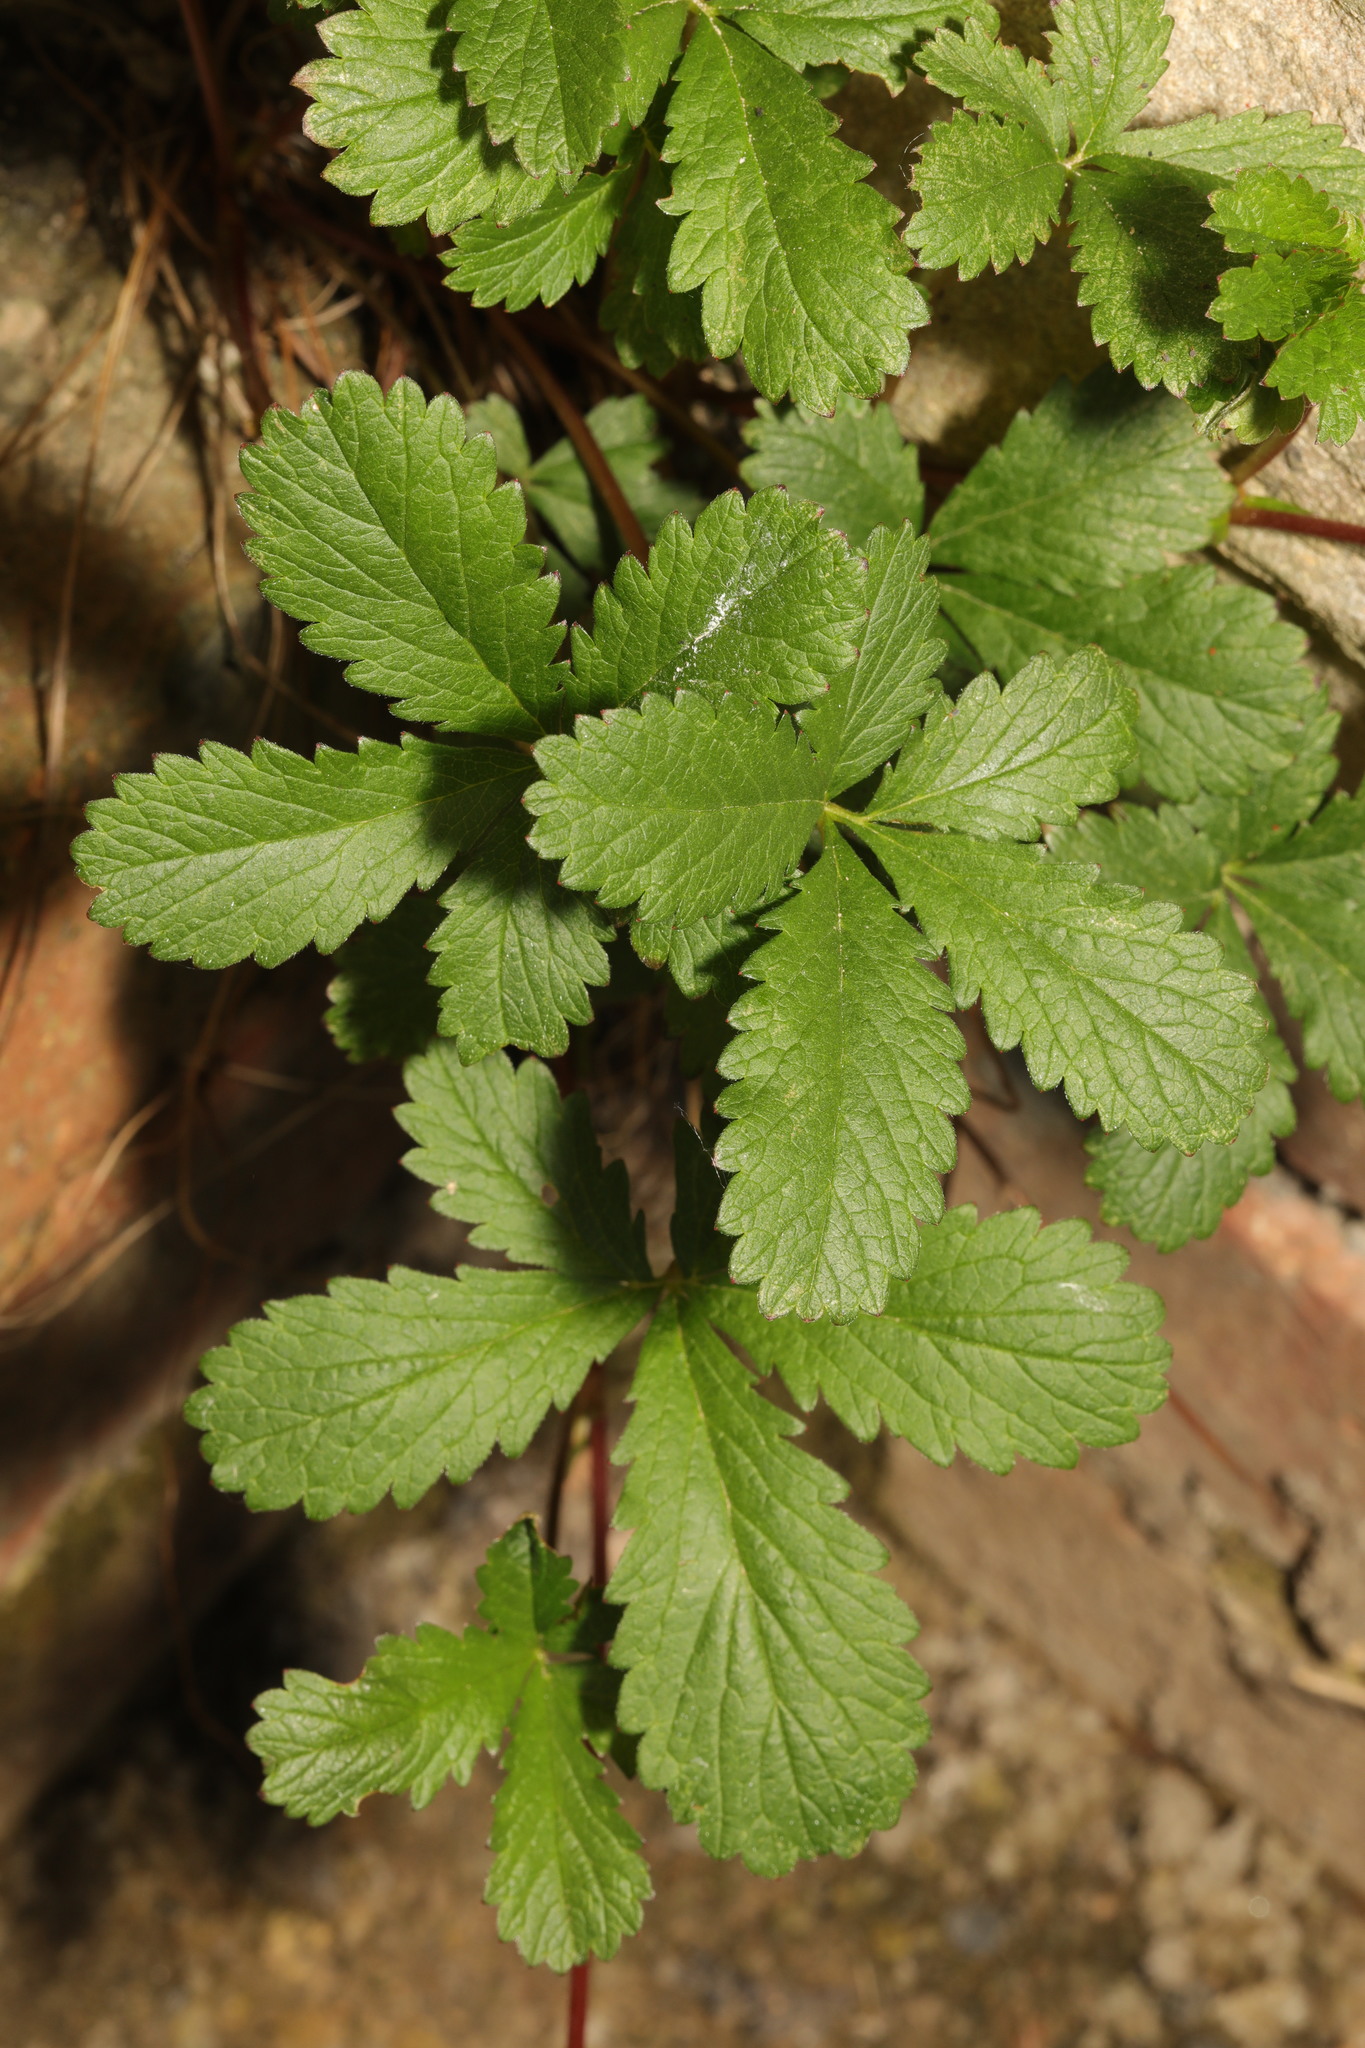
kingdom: Plantae
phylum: Tracheophyta
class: Magnoliopsida
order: Rosales
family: Rosaceae
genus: Potentilla
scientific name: Potentilla reptans
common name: Creeping cinquefoil
